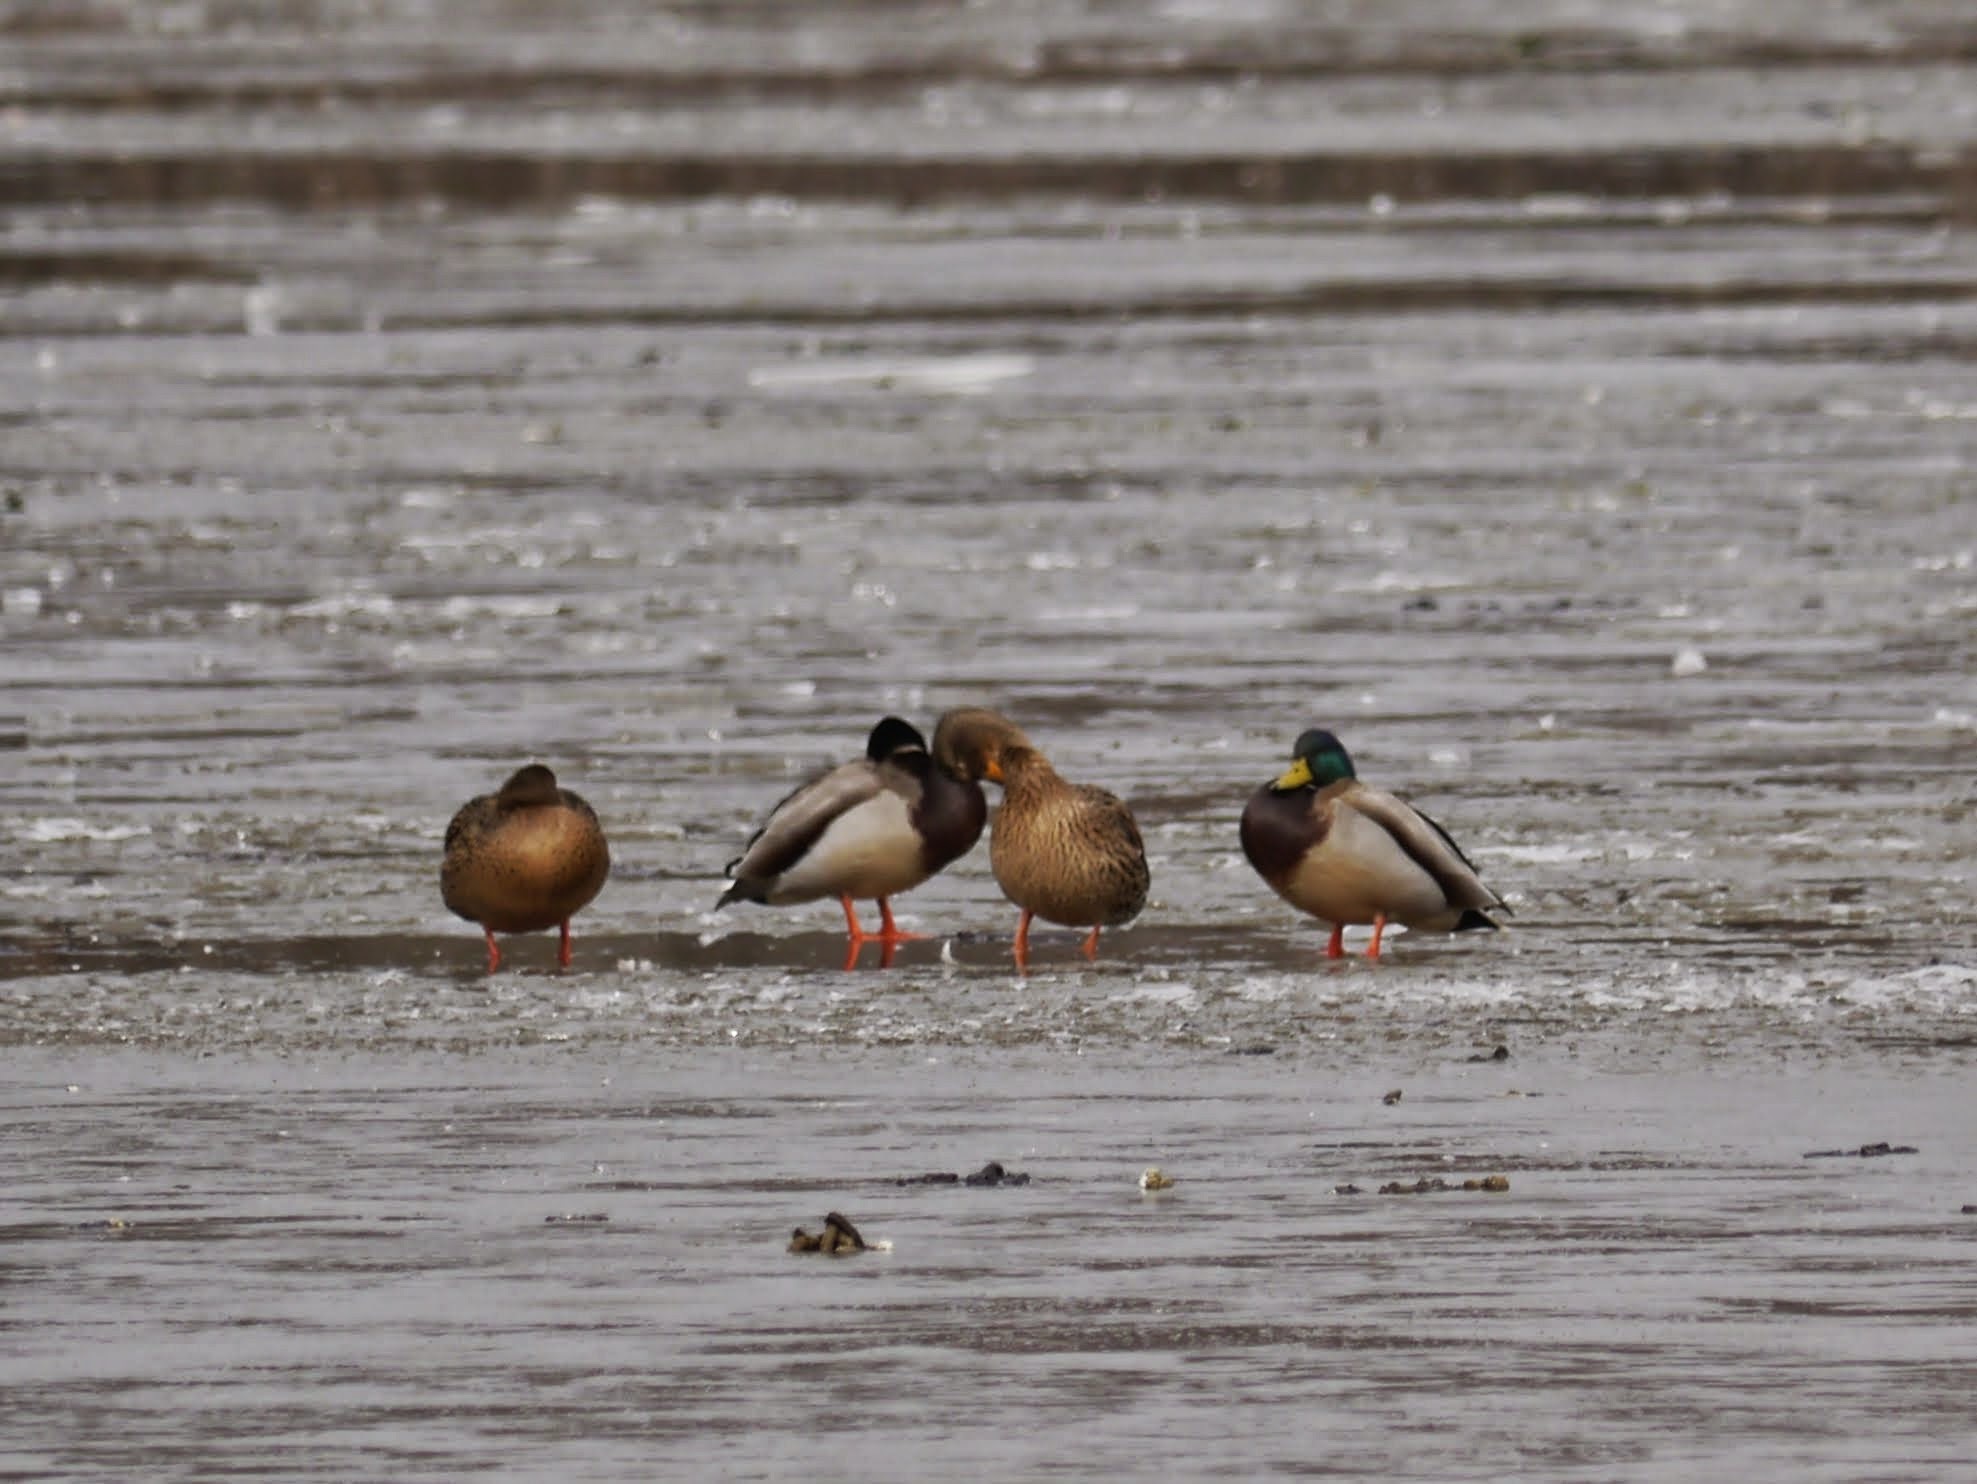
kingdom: Animalia
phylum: Chordata
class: Aves
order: Anseriformes
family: Anatidae
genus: Anas
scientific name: Anas platyrhynchos
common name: Mallard
